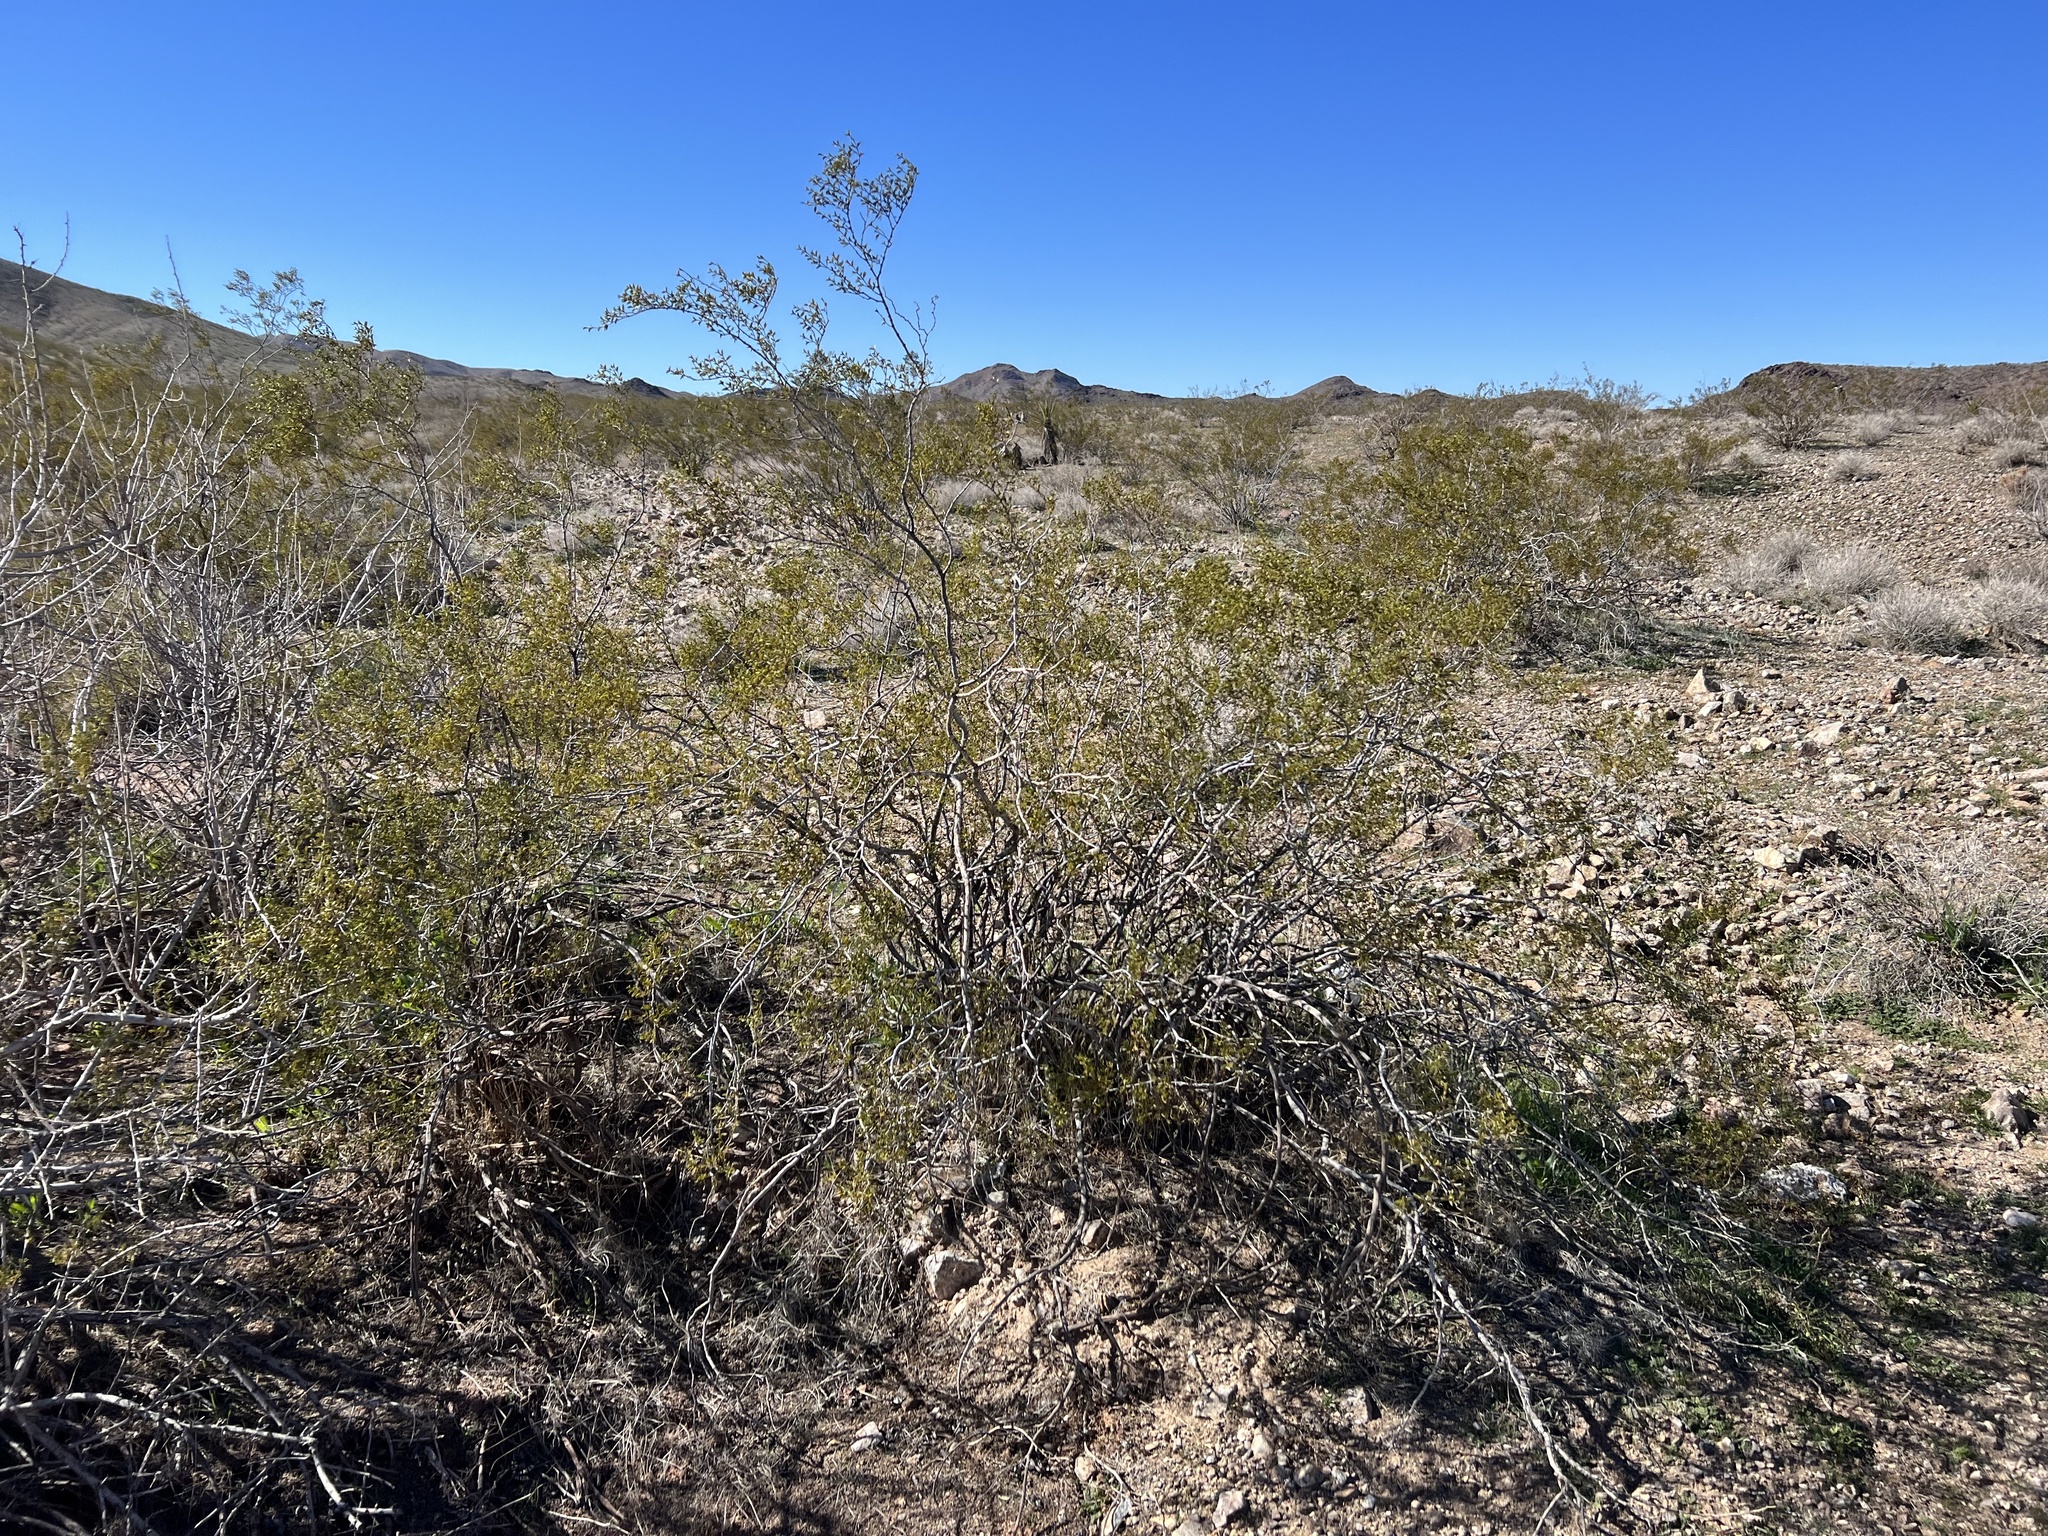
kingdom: Plantae
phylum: Tracheophyta
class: Magnoliopsida
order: Zygophyllales
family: Zygophyllaceae
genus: Larrea
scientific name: Larrea tridentata
